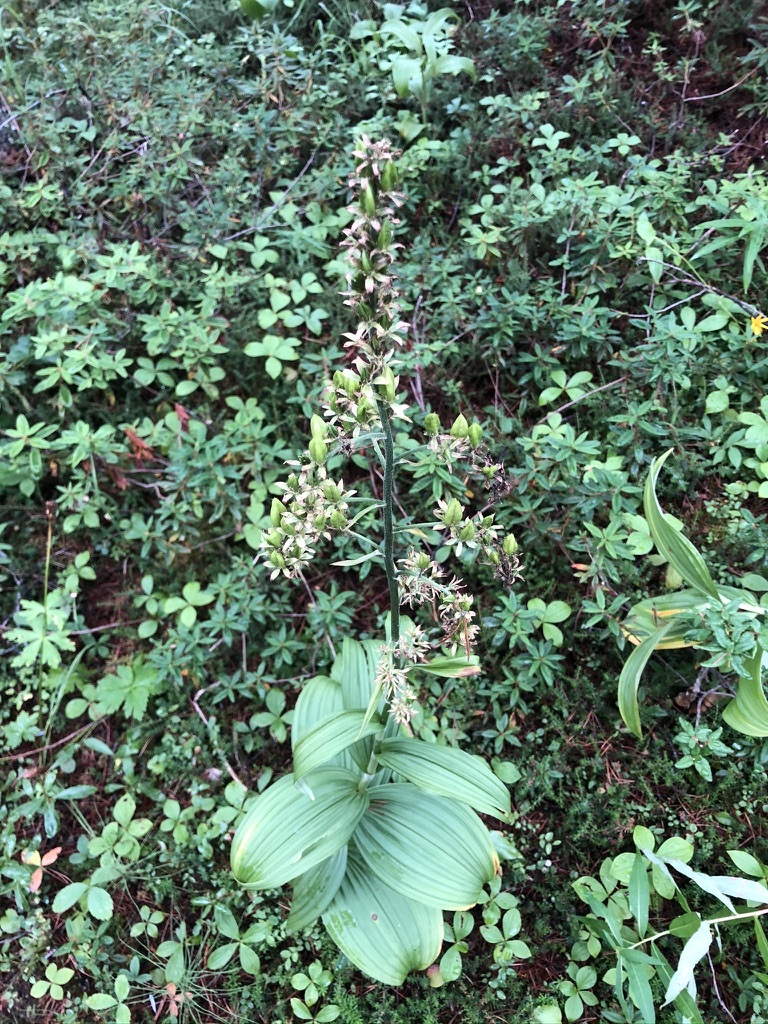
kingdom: Plantae
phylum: Tracheophyta
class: Liliopsida
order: Liliales
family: Melanthiaceae
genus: Veratrum
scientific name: Veratrum viride
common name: American false hellebore
